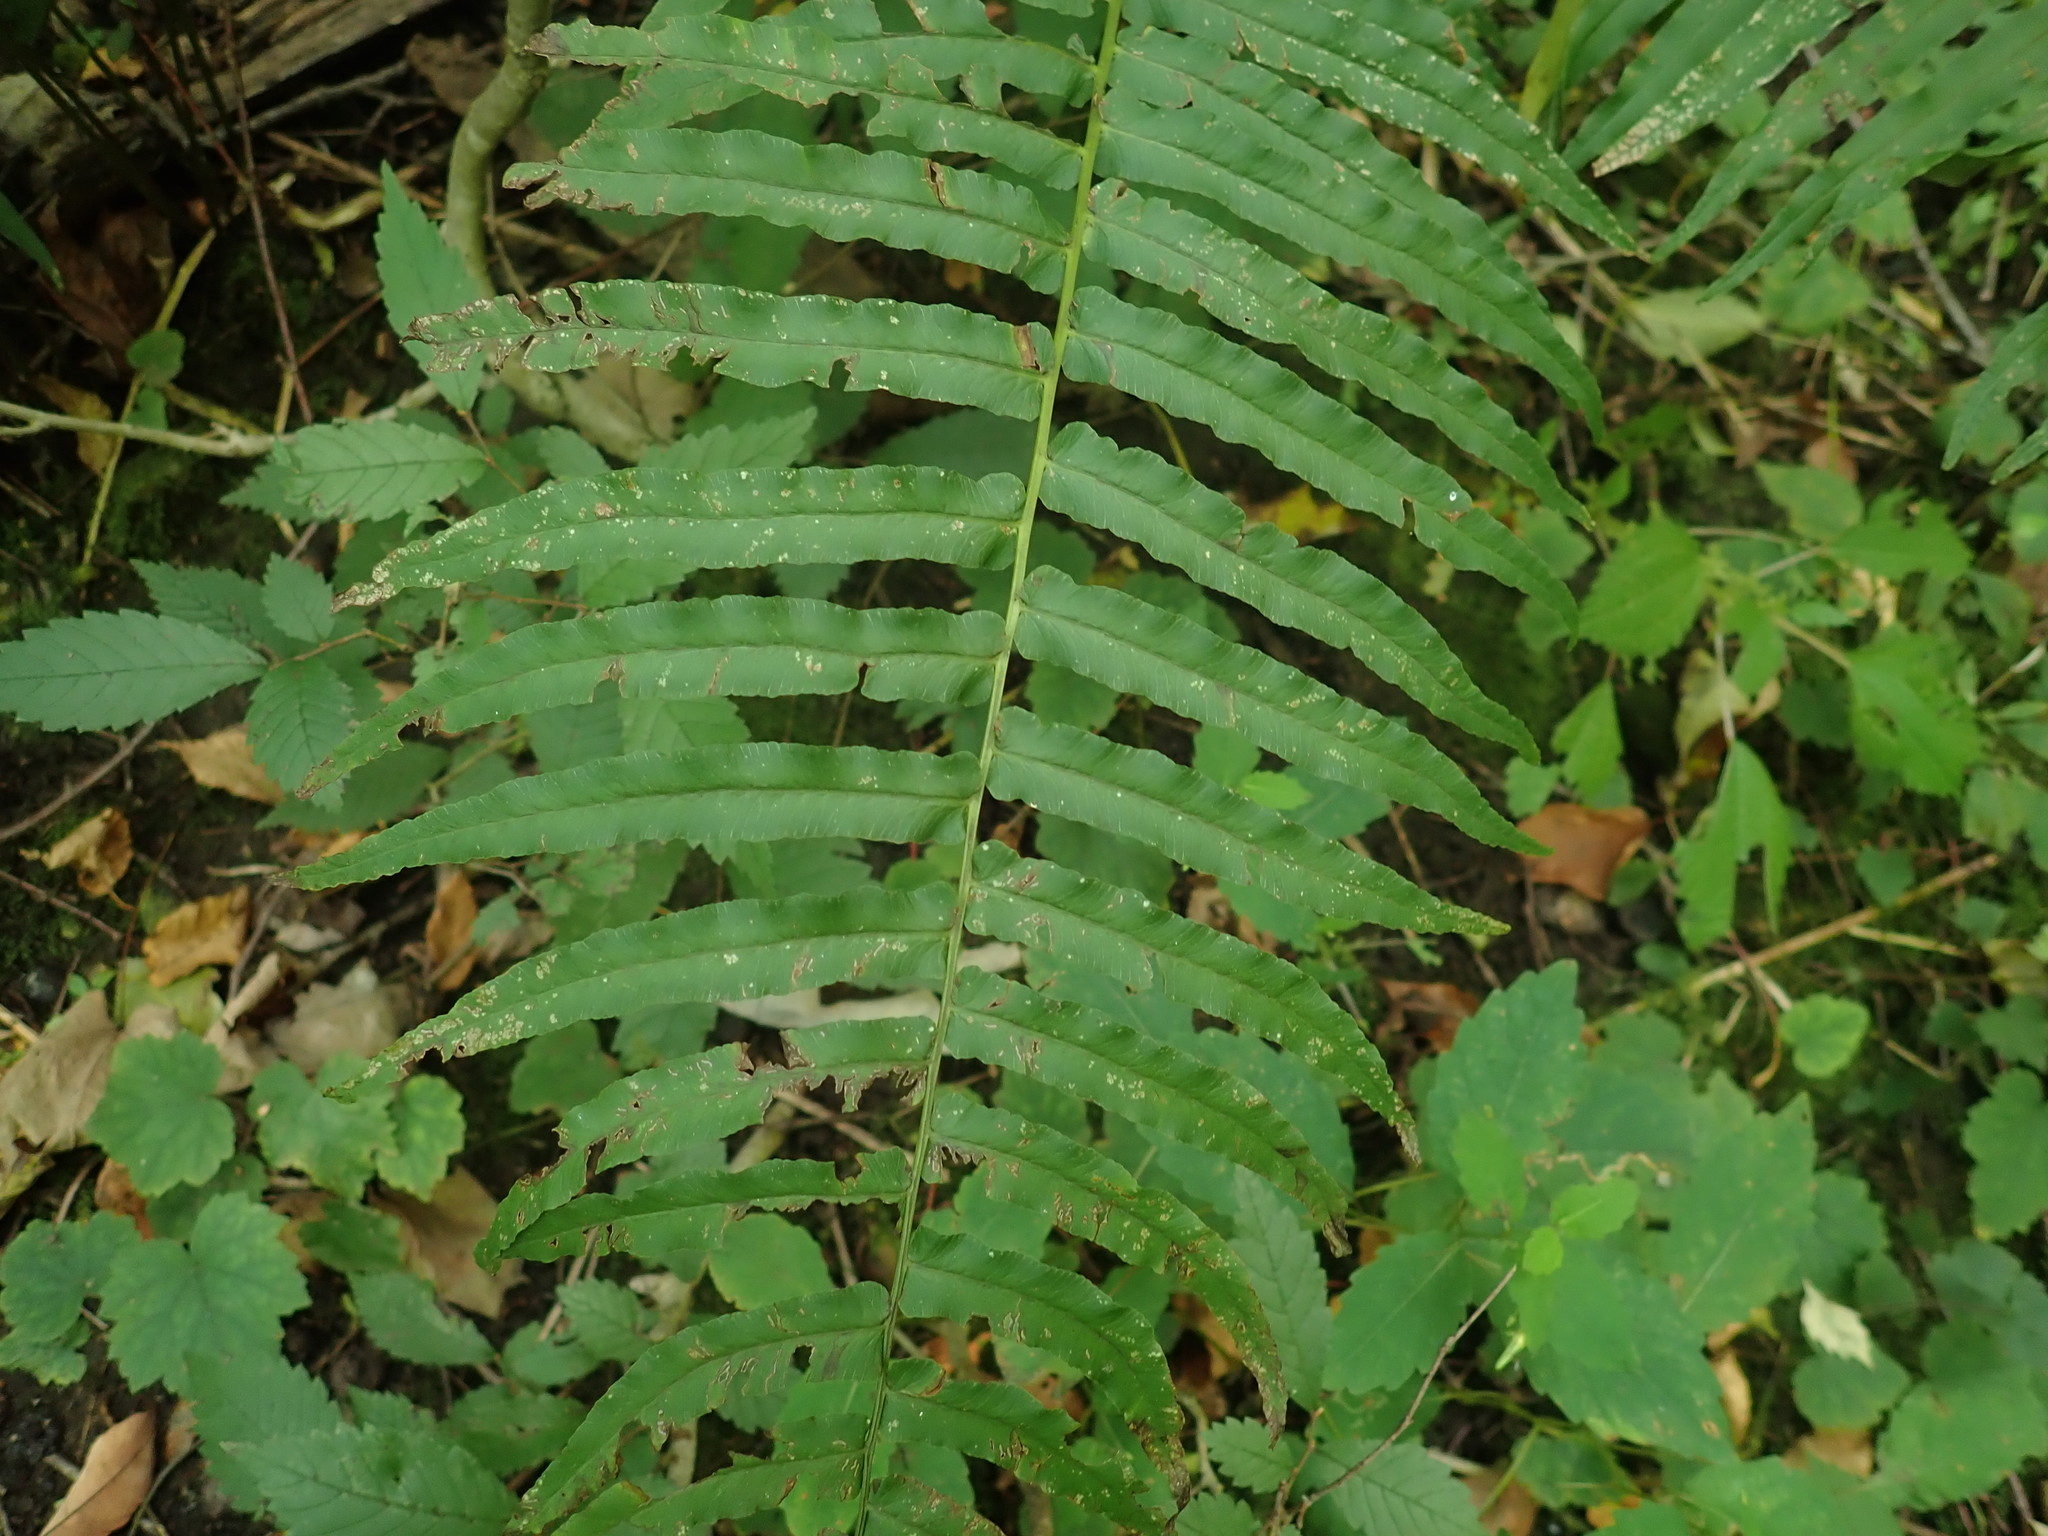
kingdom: Plantae
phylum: Tracheophyta
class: Polypodiopsida
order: Polypodiales
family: Diplaziopsidaceae
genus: Homalosorus
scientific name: Homalosorus pycnocarpos
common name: Glade fern
